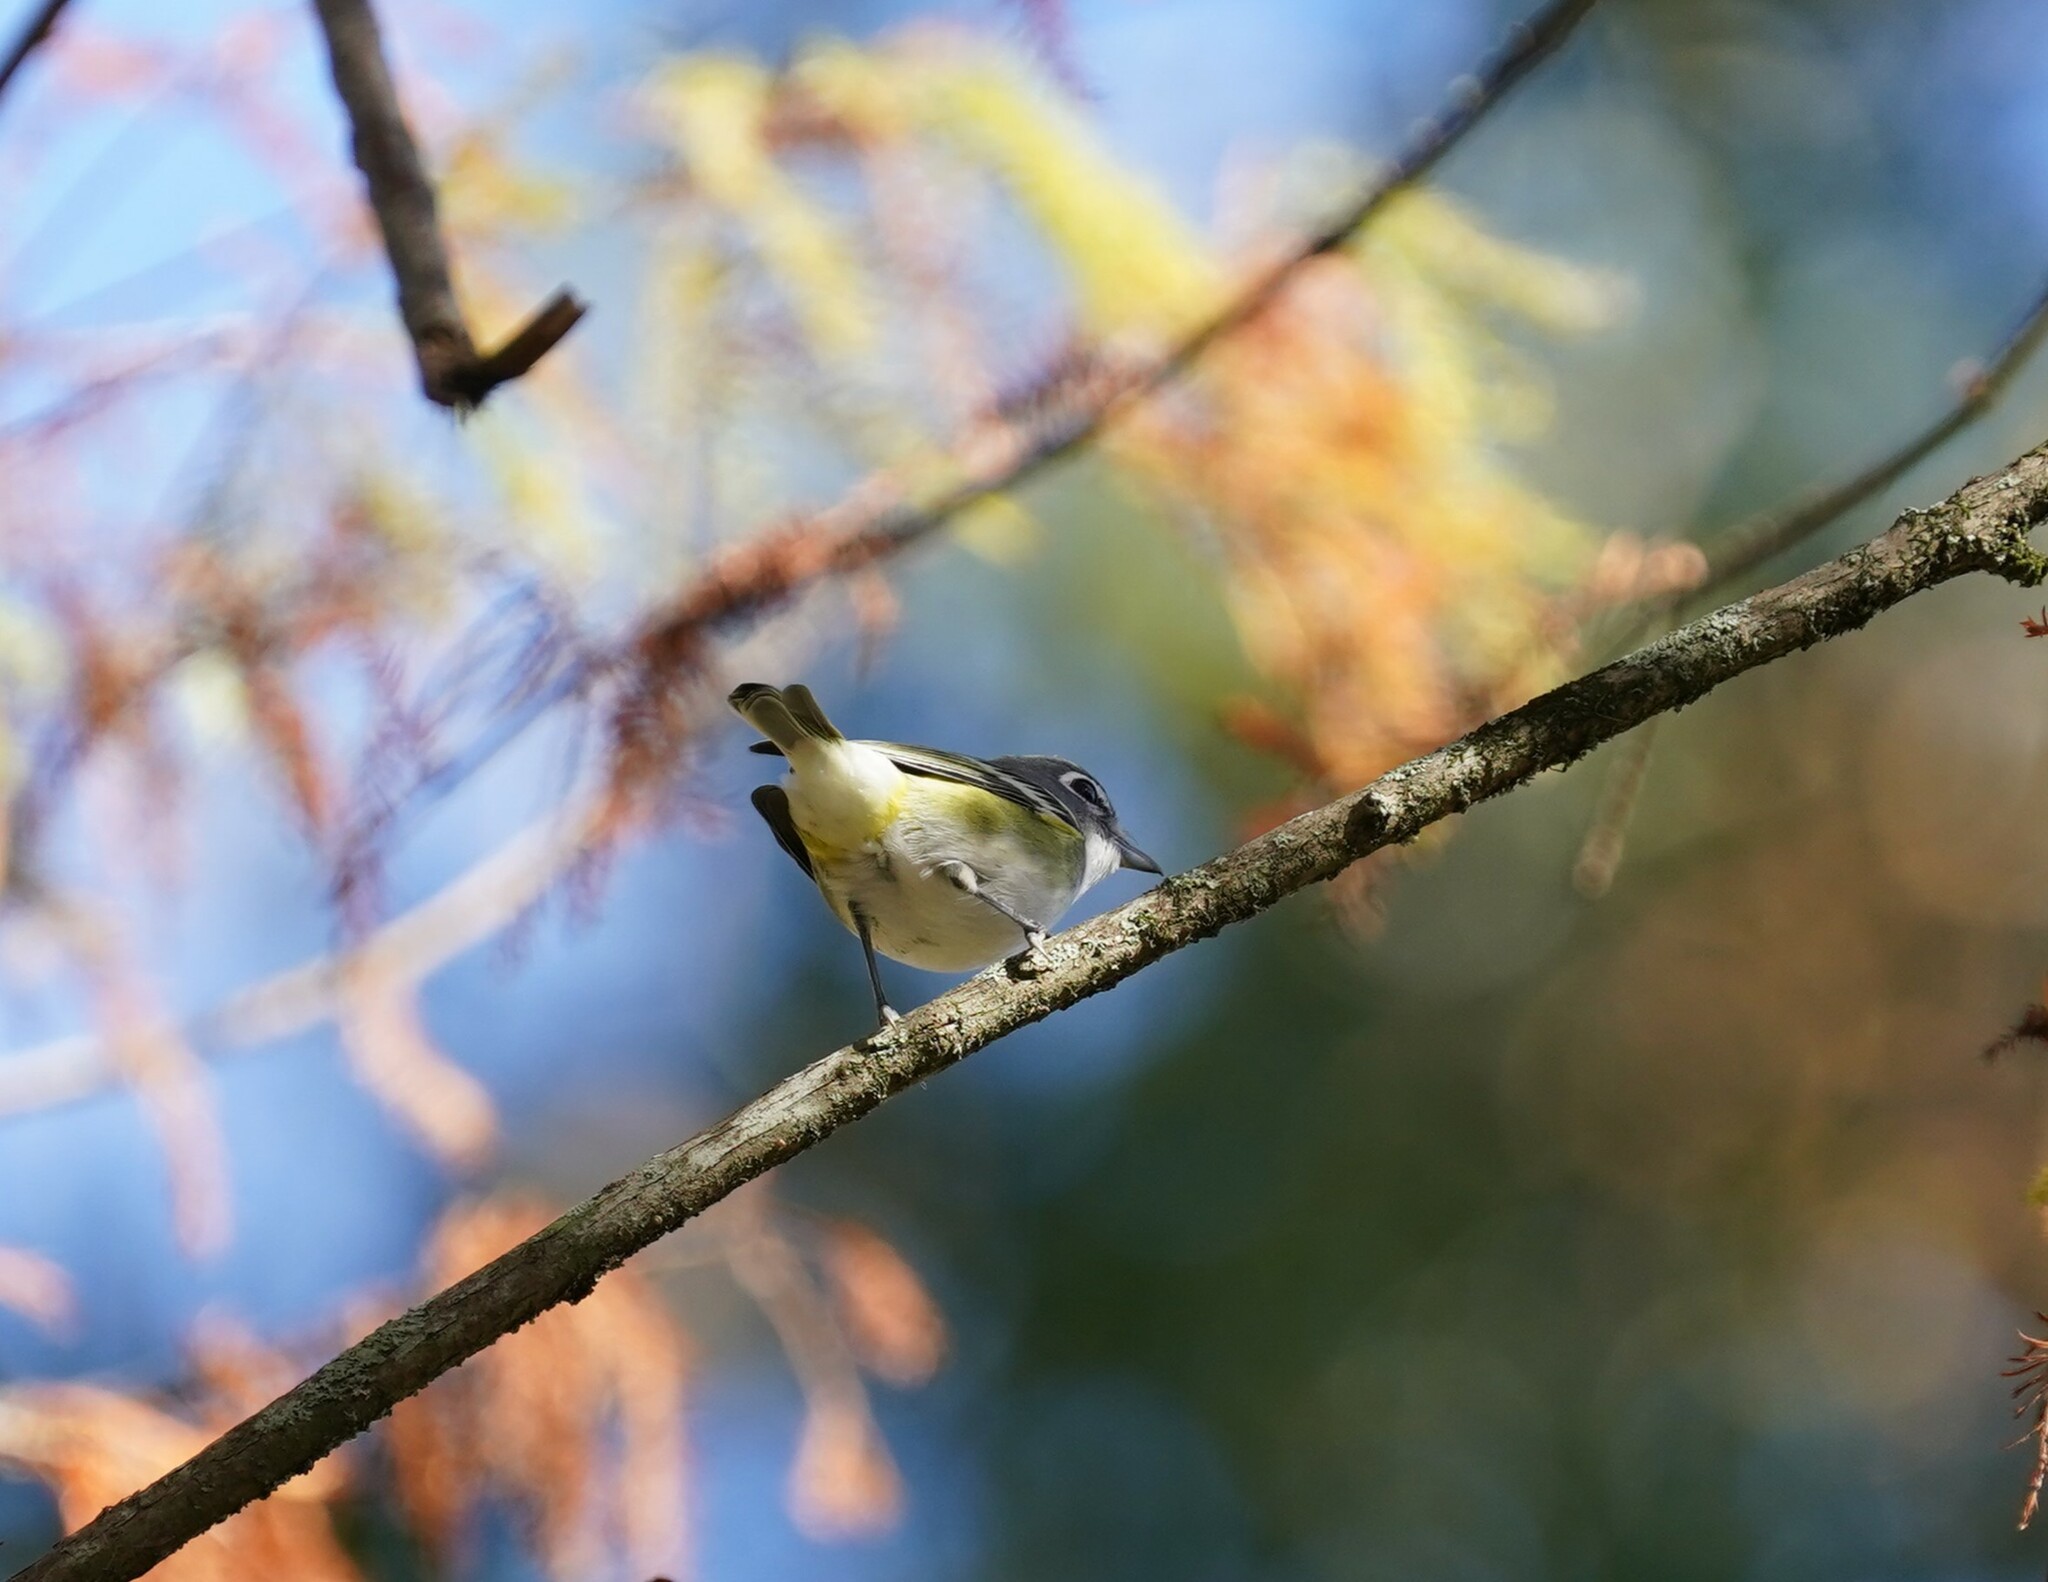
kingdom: Animalia
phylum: Chordata
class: Aves
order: Passeriformes
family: Vireonidae
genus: Vireo
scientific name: Vireo solitarius
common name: Blue-headed vireo
